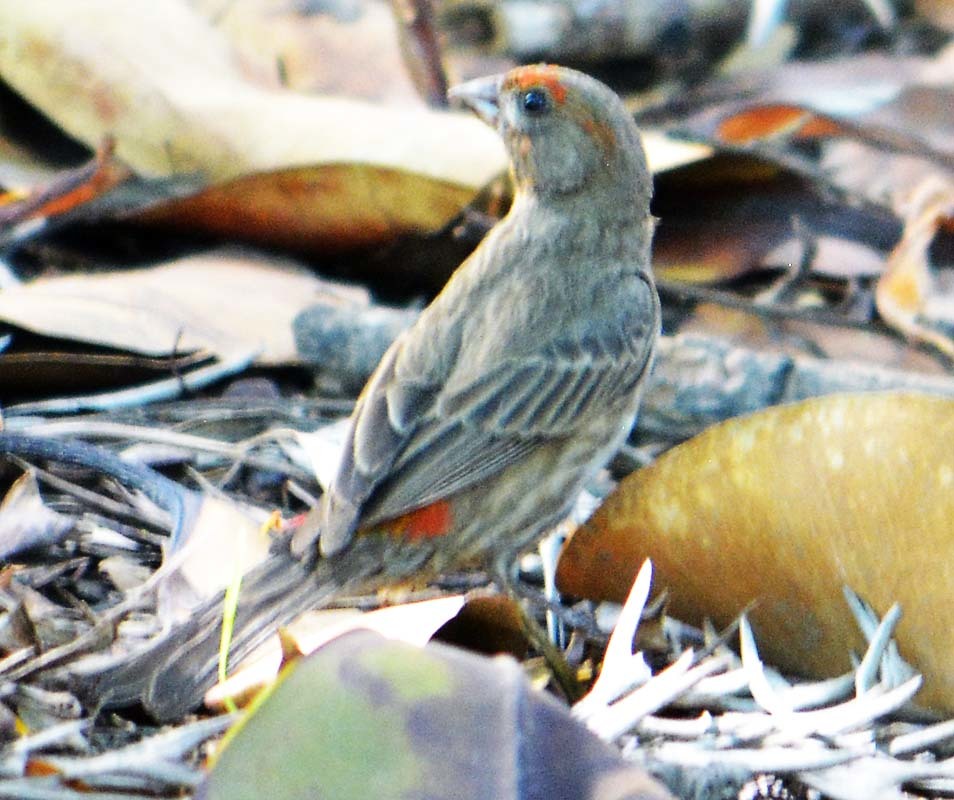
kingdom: Animalia
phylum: Chordata
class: Aves
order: Passeriformes
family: Fringillidae
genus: Haemorhous
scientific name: Haemorhous mexicanus
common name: House finch
